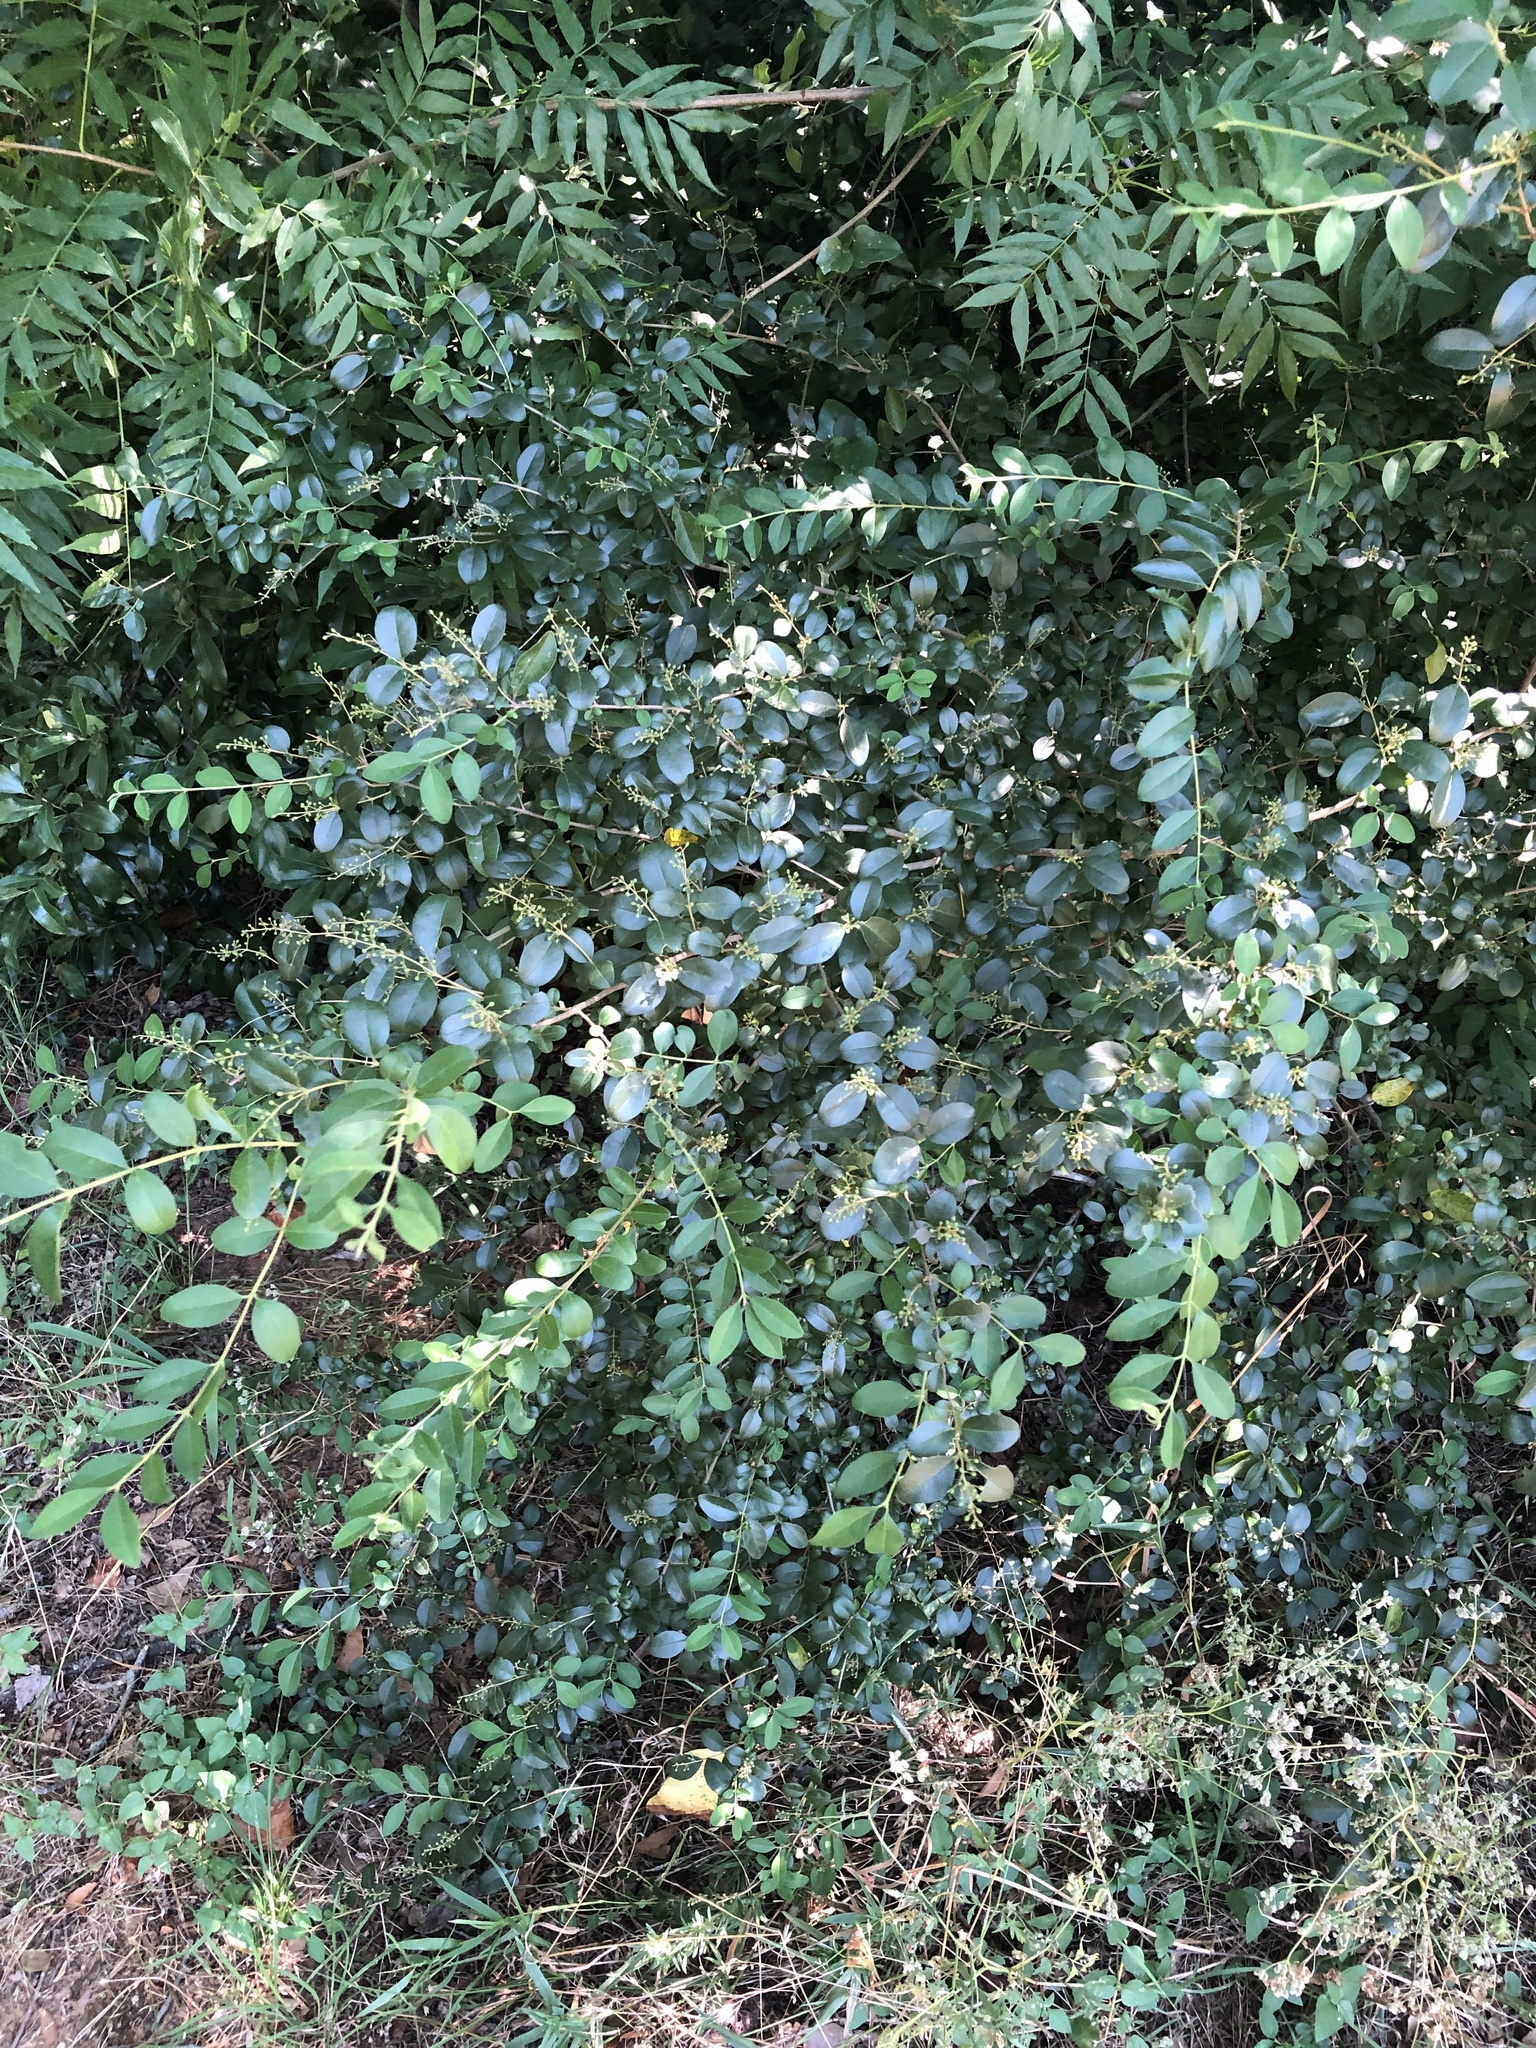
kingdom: Plantae
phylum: Tracheophyta
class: Magnoliopsida
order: Lamiales
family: Oleaceae
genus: Ligustrum
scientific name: Ligustrum sinense
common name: Chinese privet
